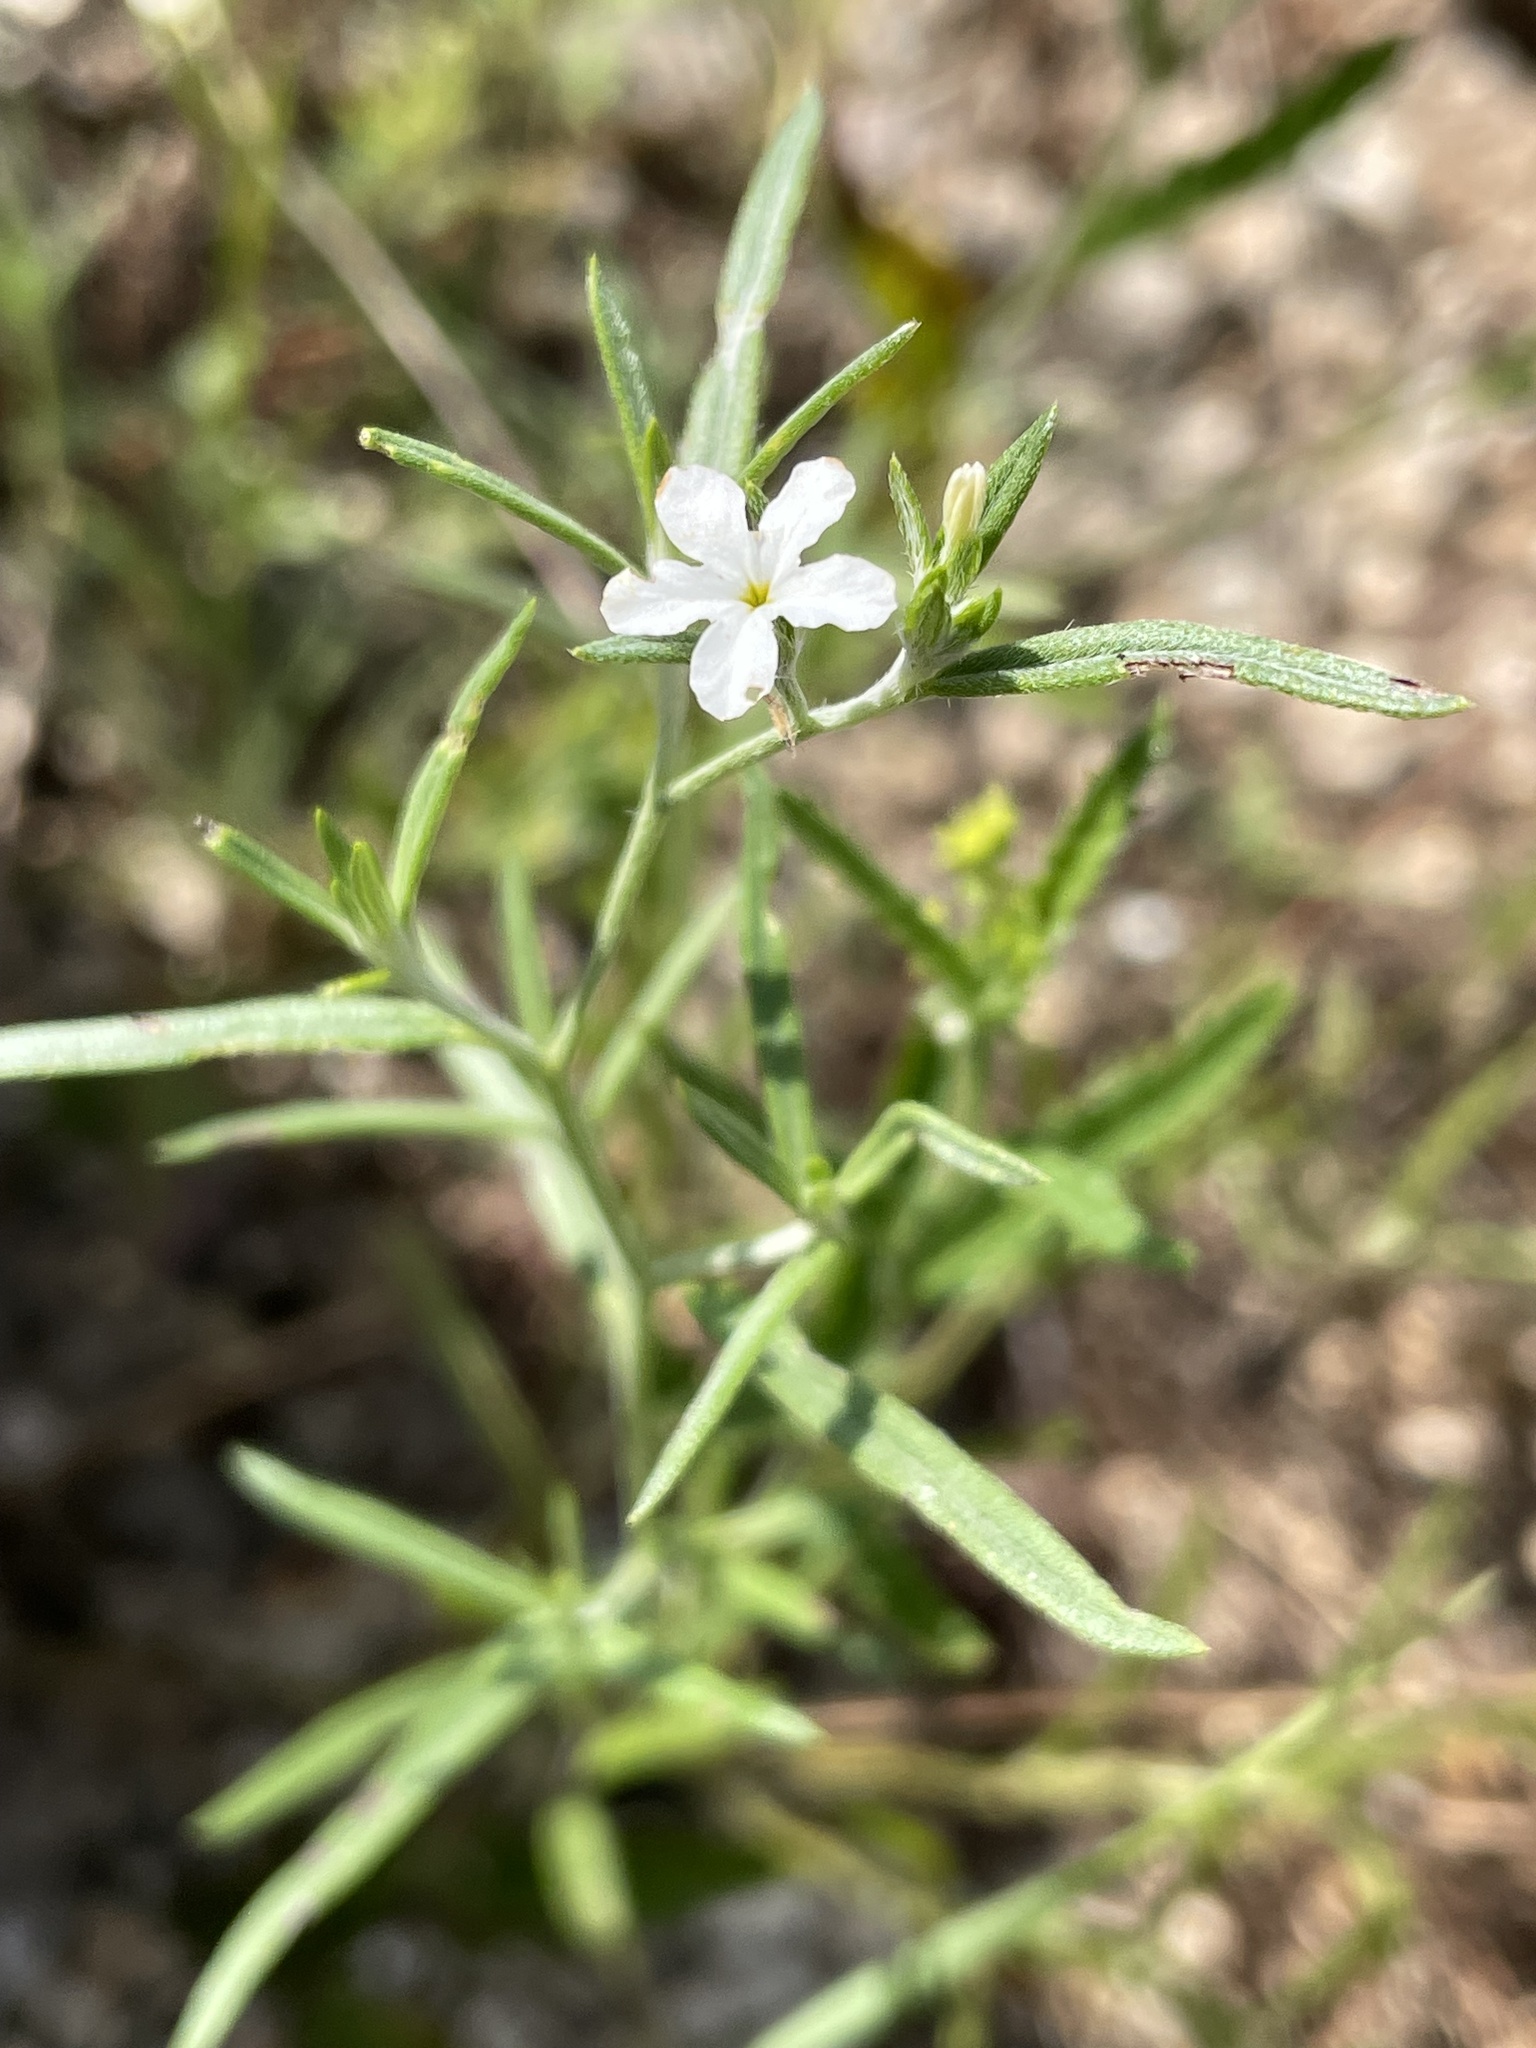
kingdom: Plantae
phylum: Tracheophyta
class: Magnoliopsida
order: Boraginales
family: Heliotropiaceae
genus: Euploca
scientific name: Euploca tenella
